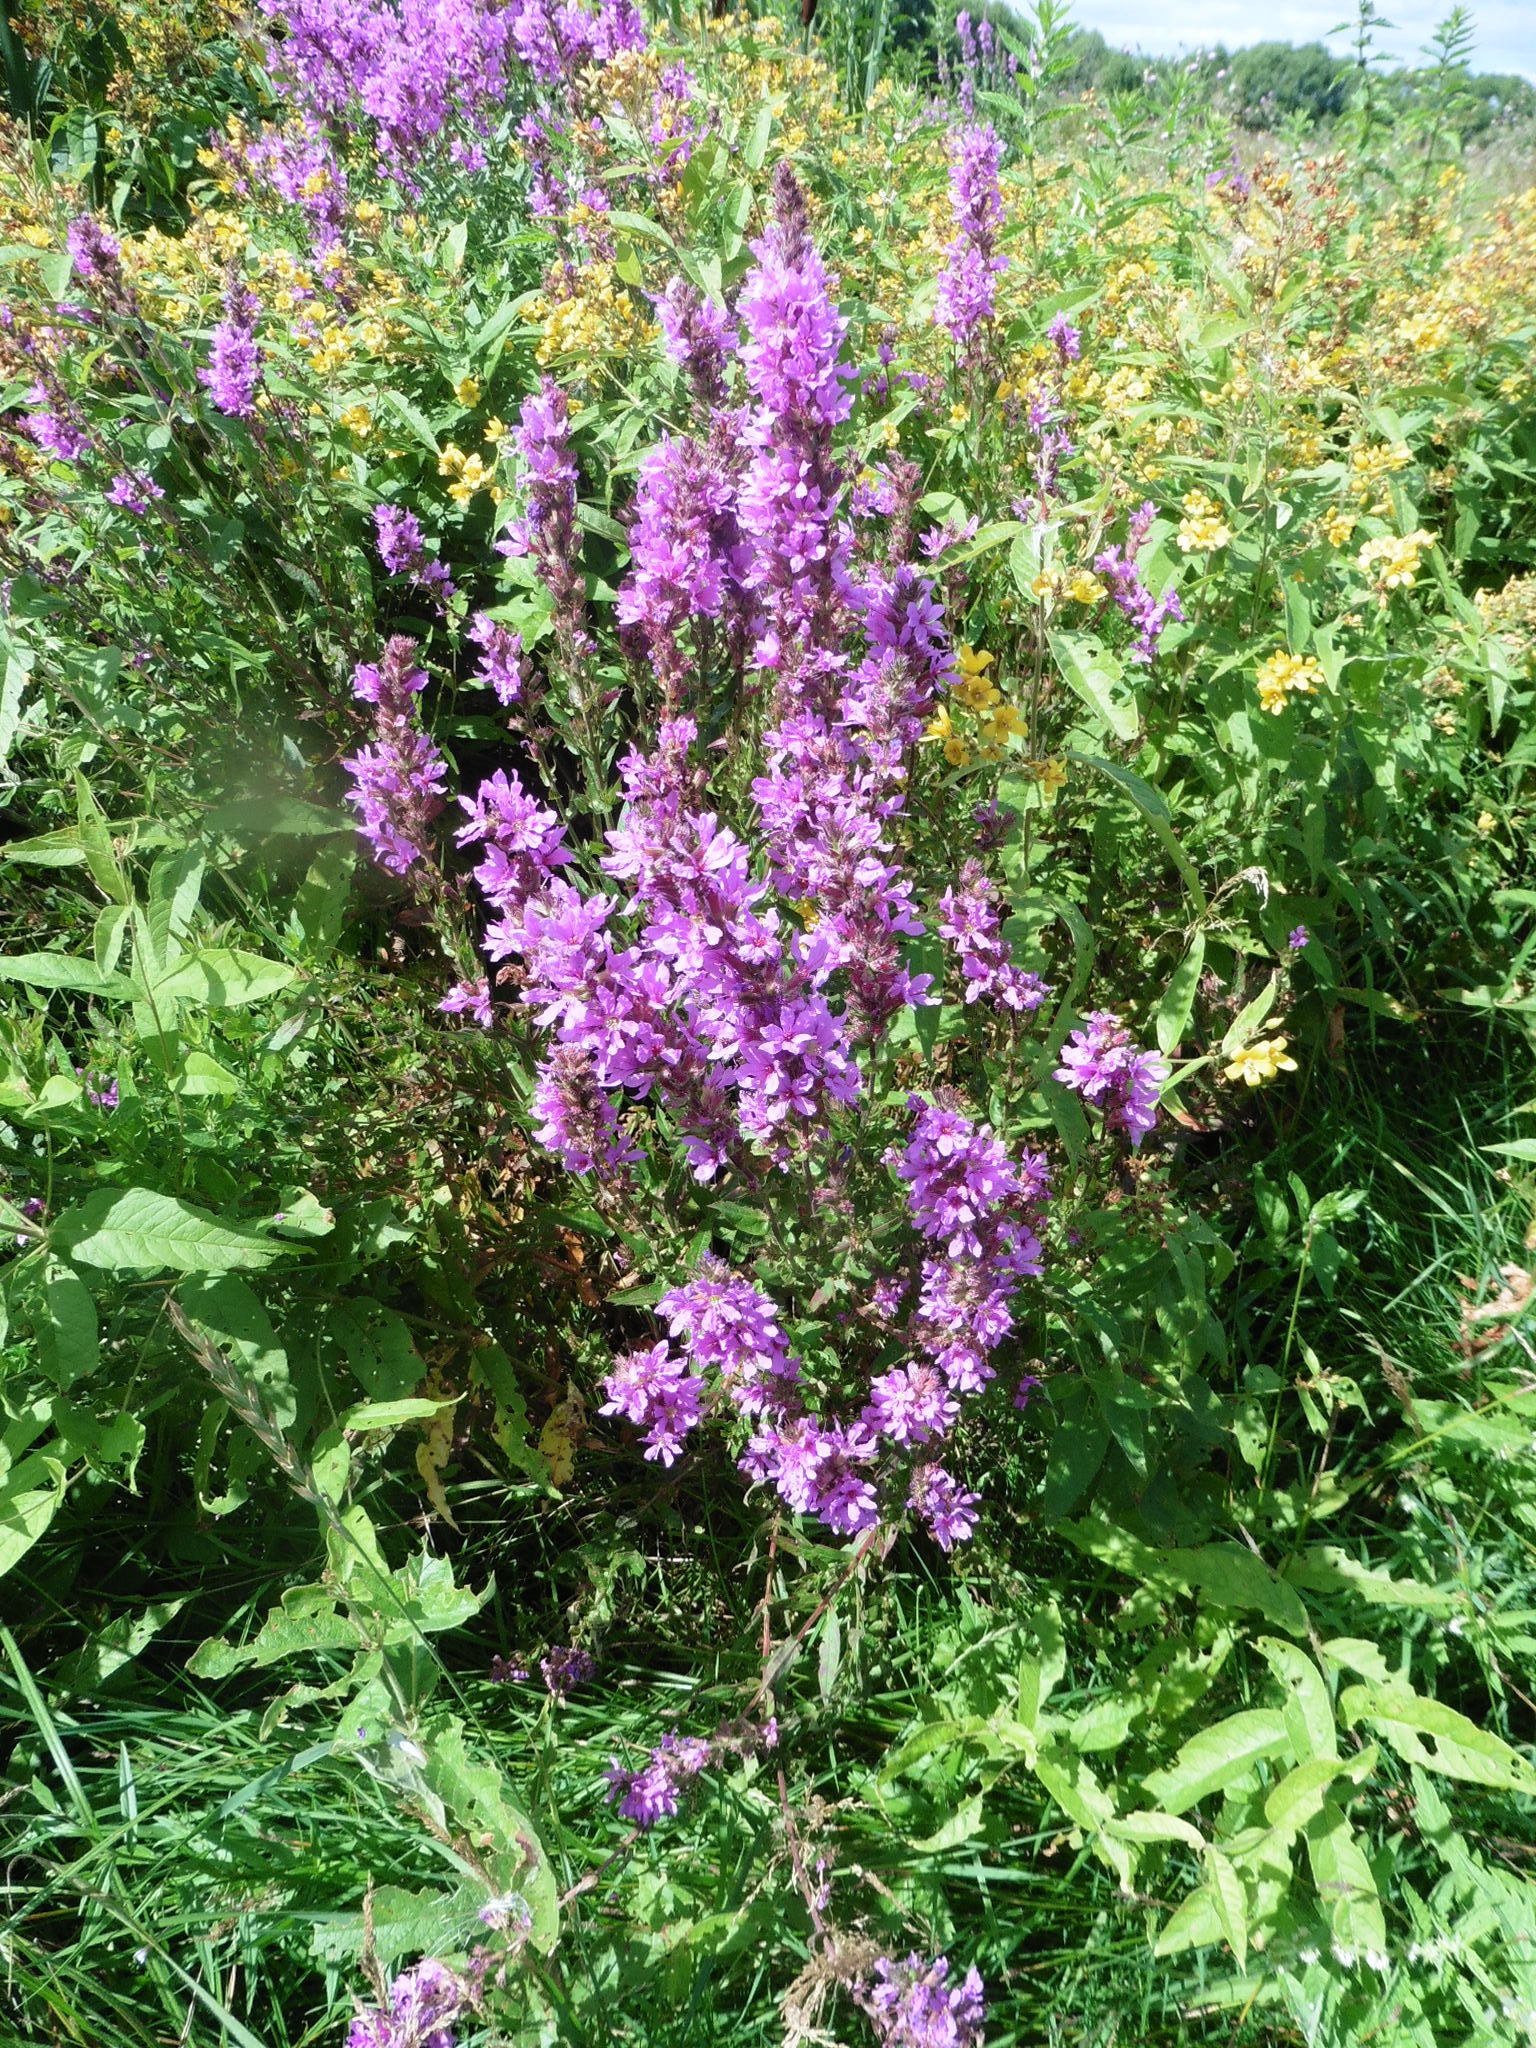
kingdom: Plantae
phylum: Tracheophyta
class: Magnoliopsida
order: Myrtales
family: Lythraceae
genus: Lythrum
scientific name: Lythrum salicaria
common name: Purple loosestrife
